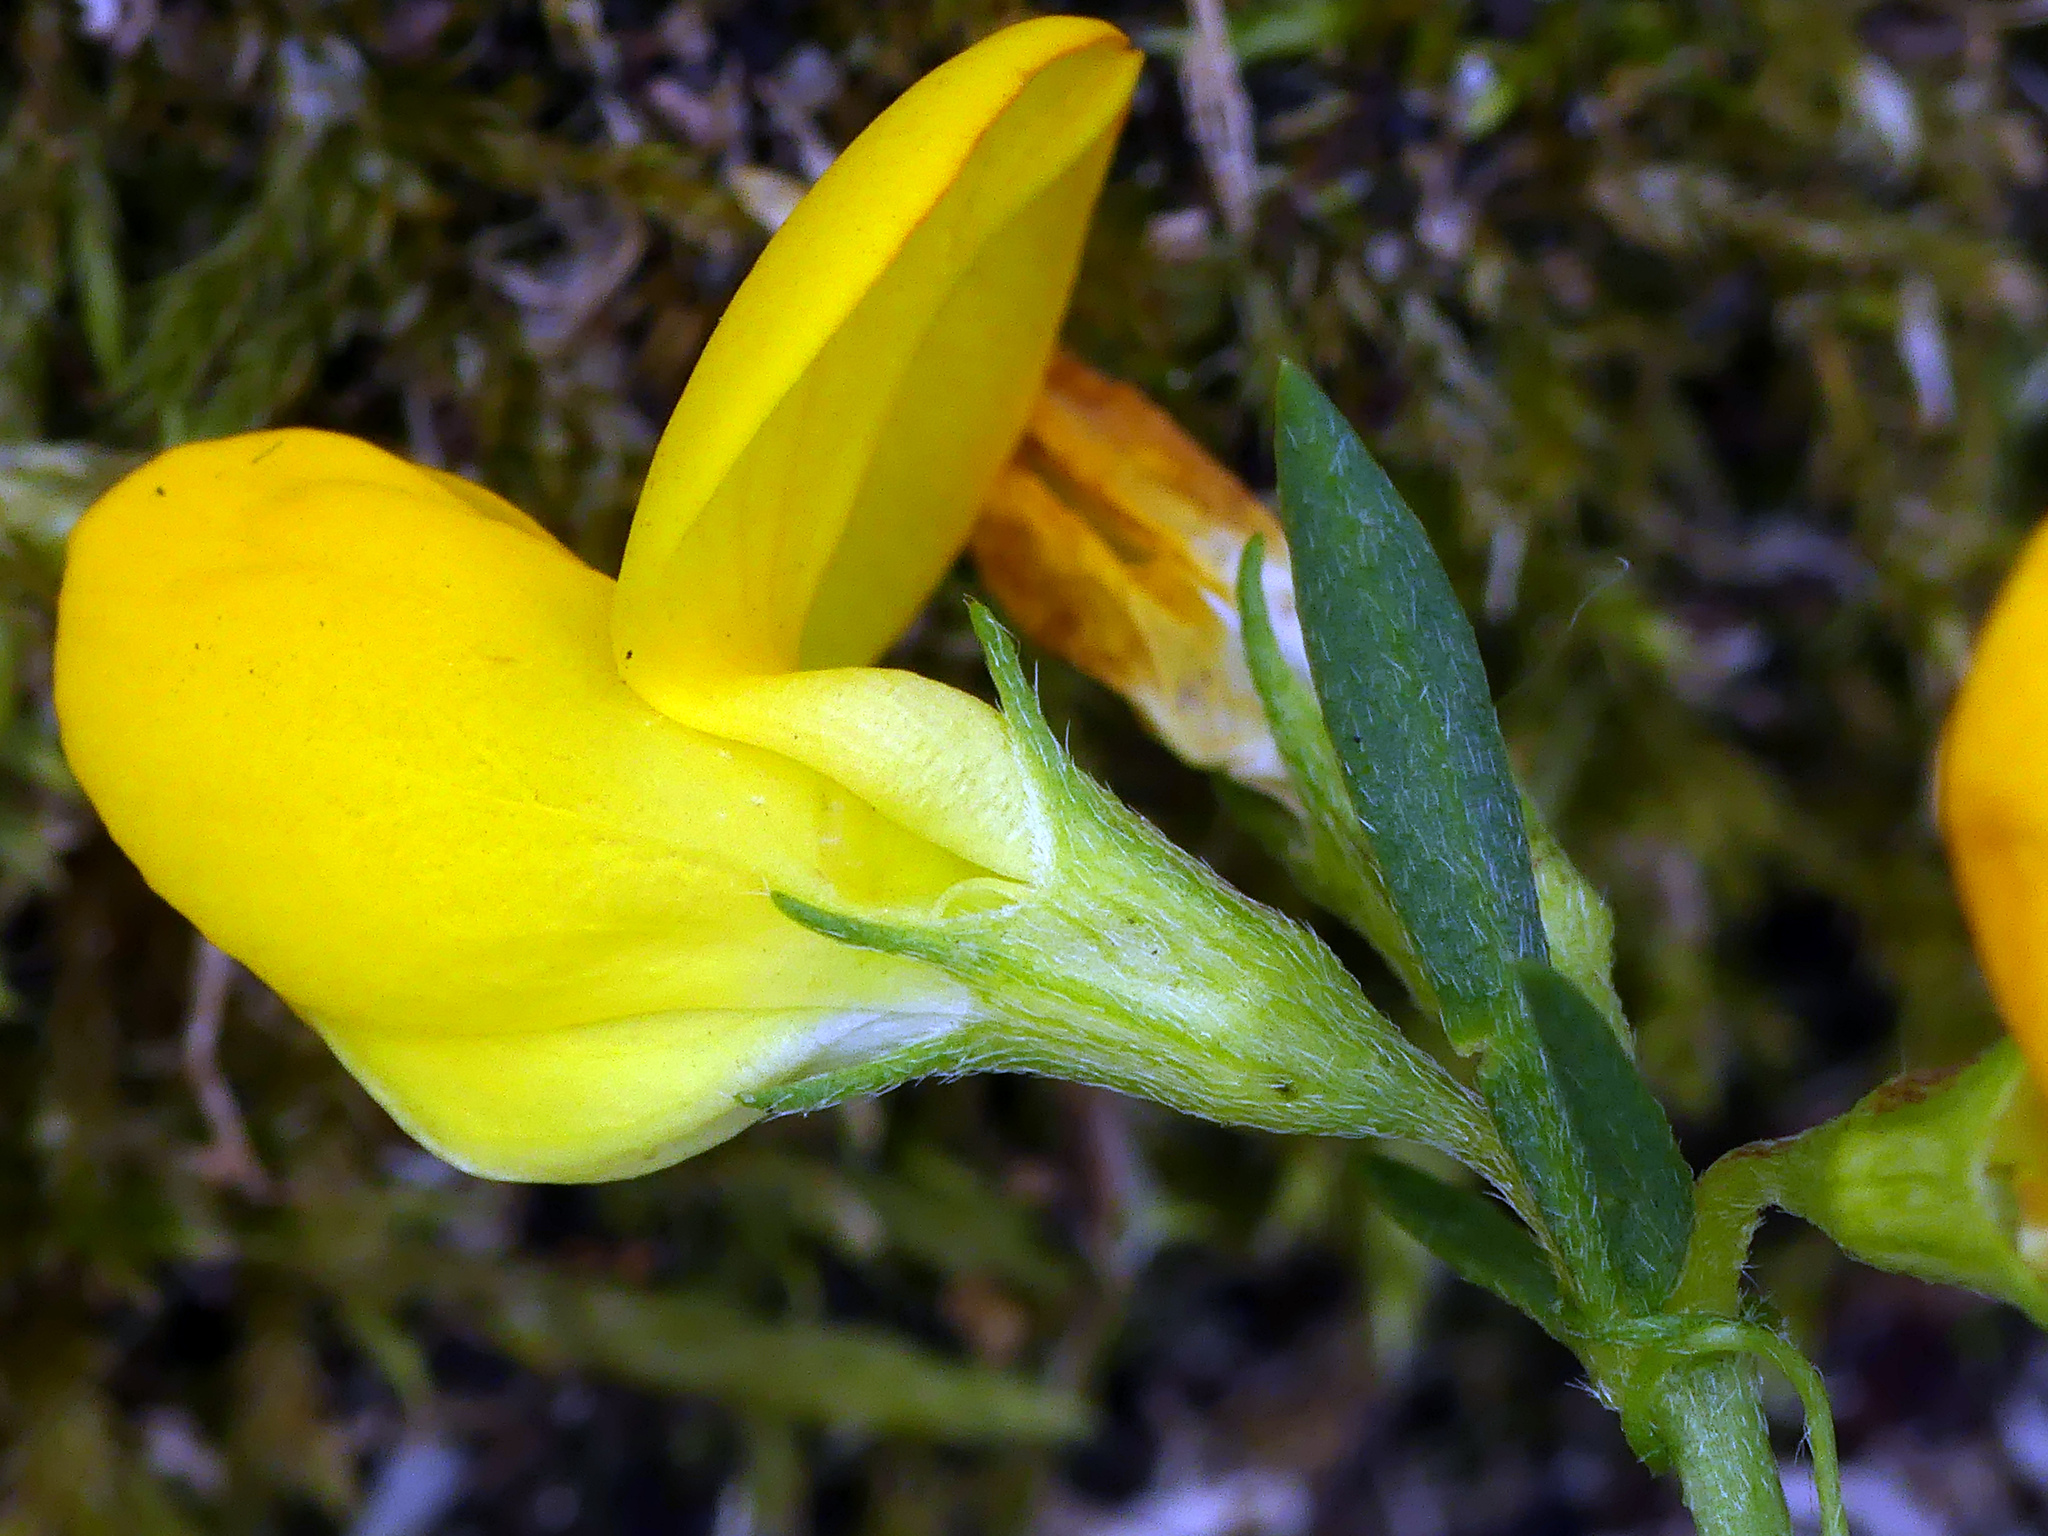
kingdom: Plantae
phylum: Tracheophyta
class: Magnoliopsida
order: Fabales
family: Fabaceae
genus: Lotus
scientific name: Lotus tenuis
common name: Narrow-leaved bird's-foot-trefoil
